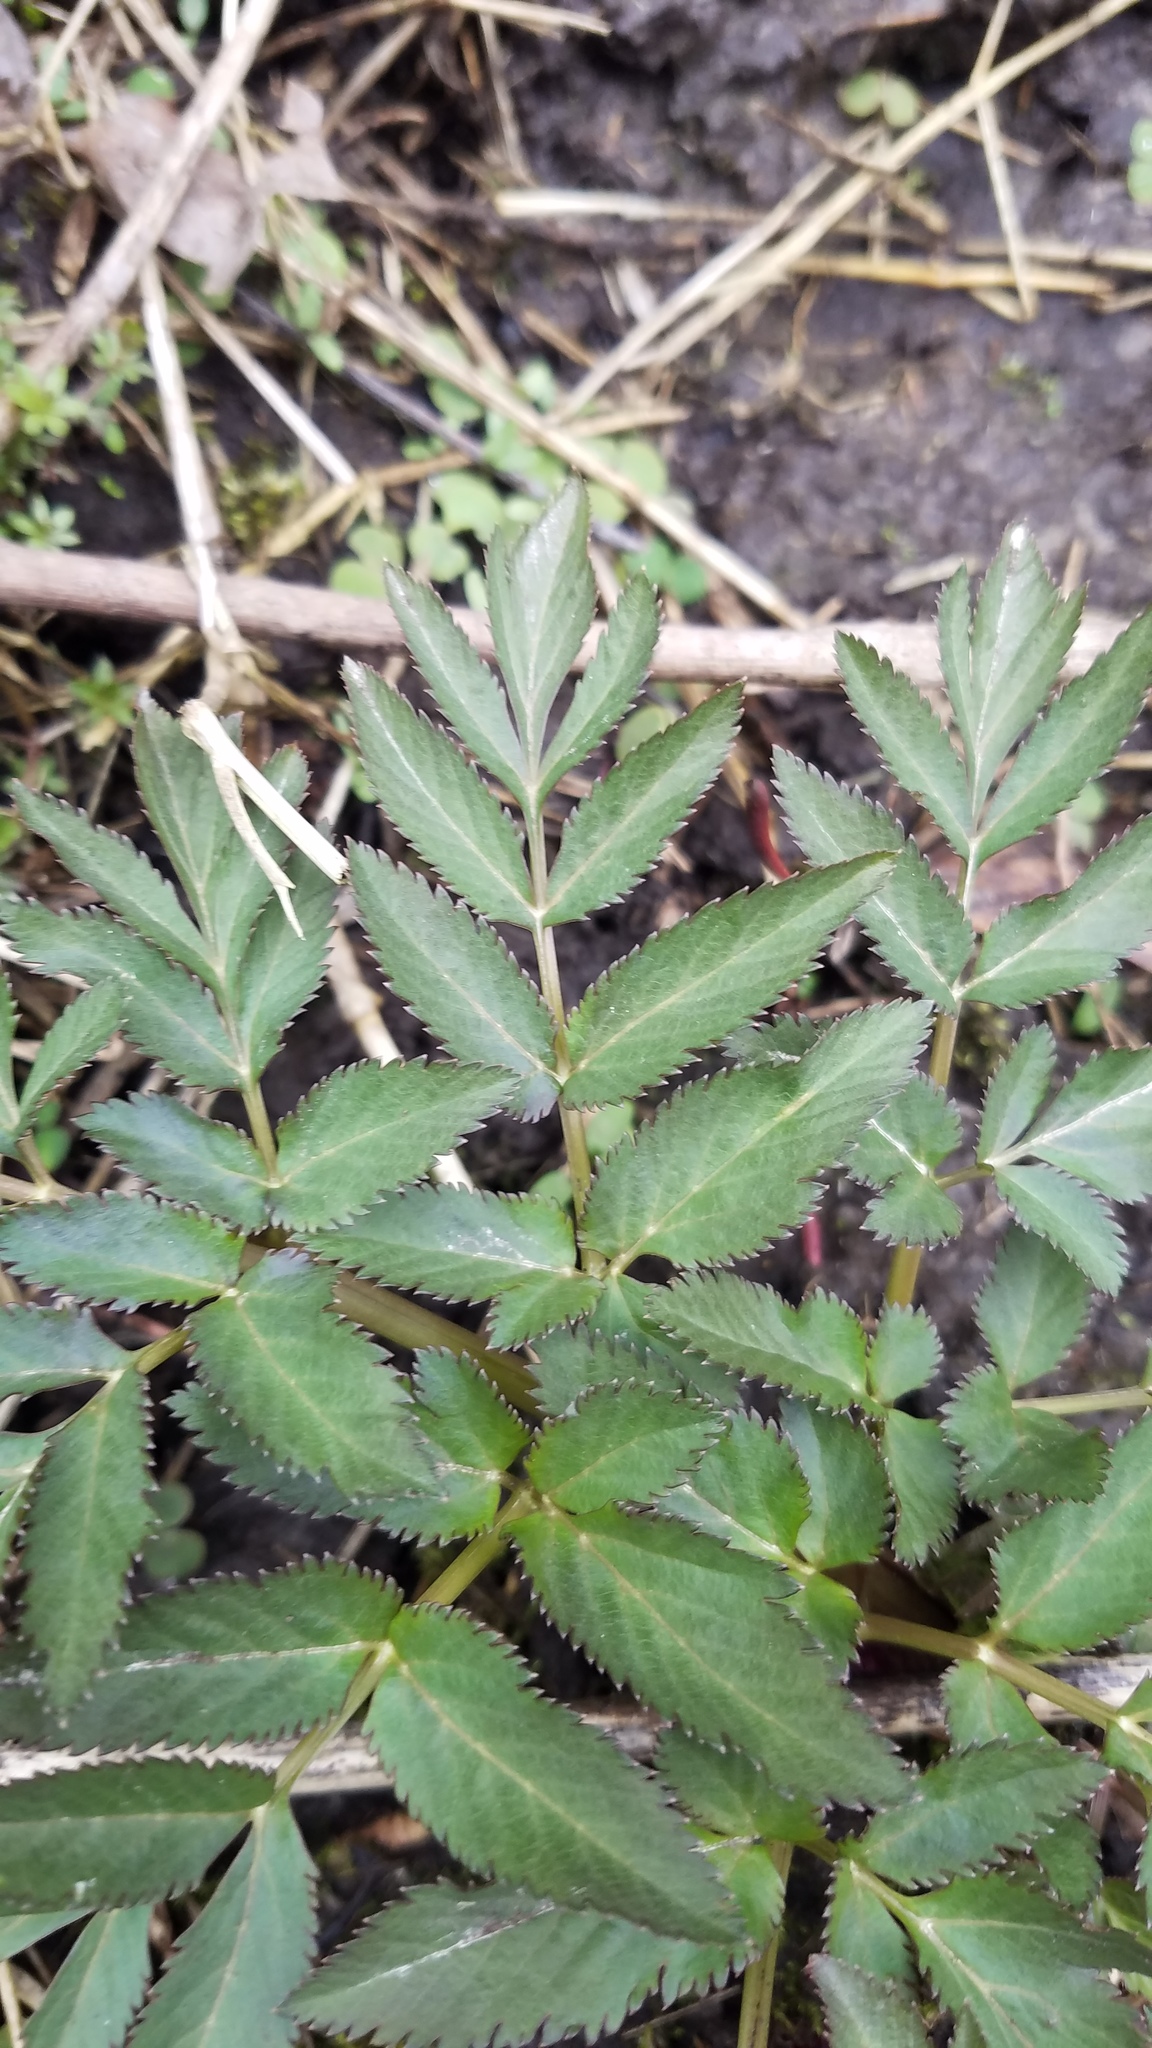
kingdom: Plantae
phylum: Tracheophyta
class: Magnoliopsida
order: Apiales
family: Apiaceae
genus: Angelica
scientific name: Angelica atropurpurea
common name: Great angelica
